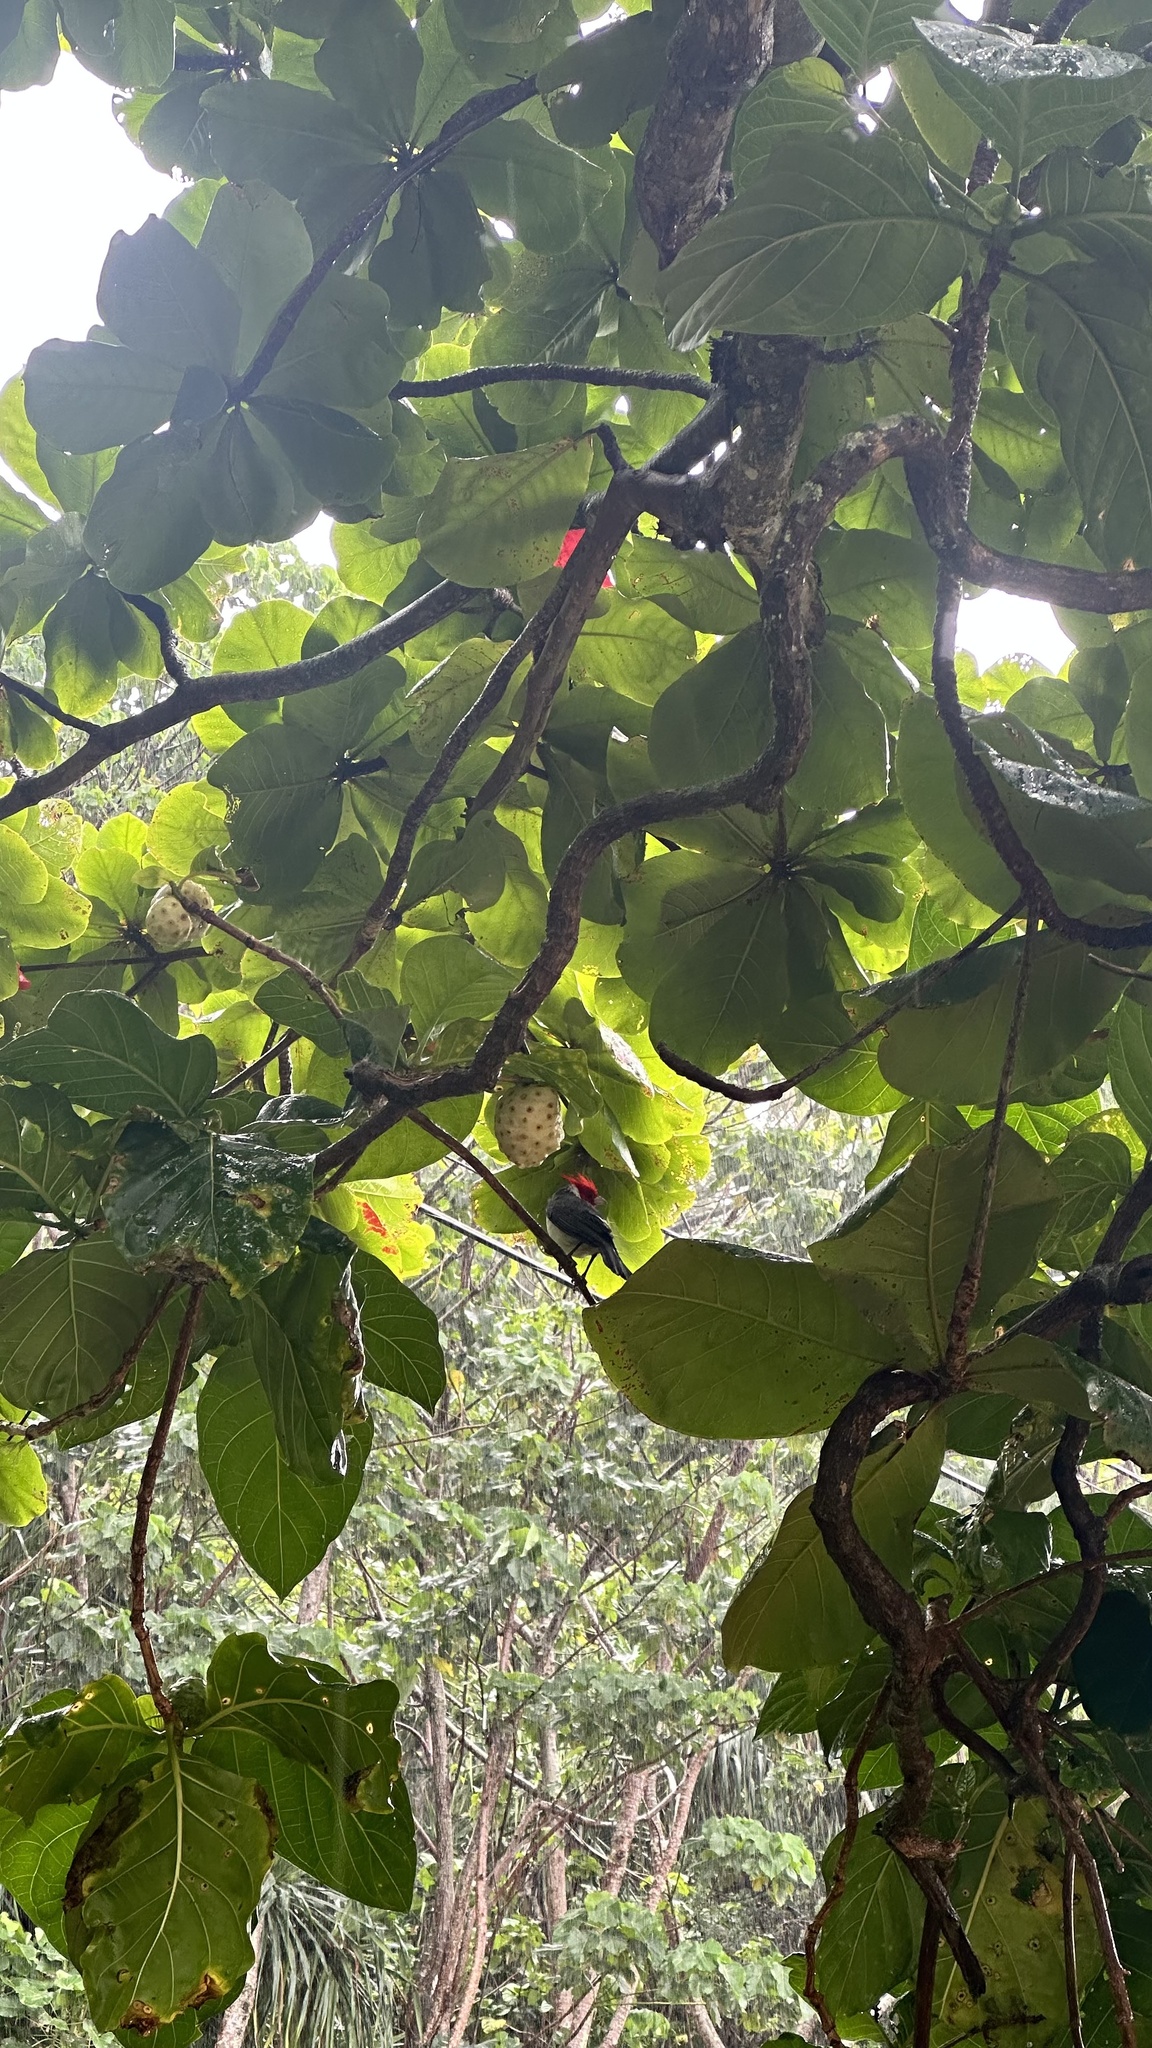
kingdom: Plantae
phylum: Tracheophyta
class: Magnoliopsida
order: Gentianales
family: Rubiaceae
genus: Morinda
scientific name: Morinda citrifolia
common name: Indian-mulberry
